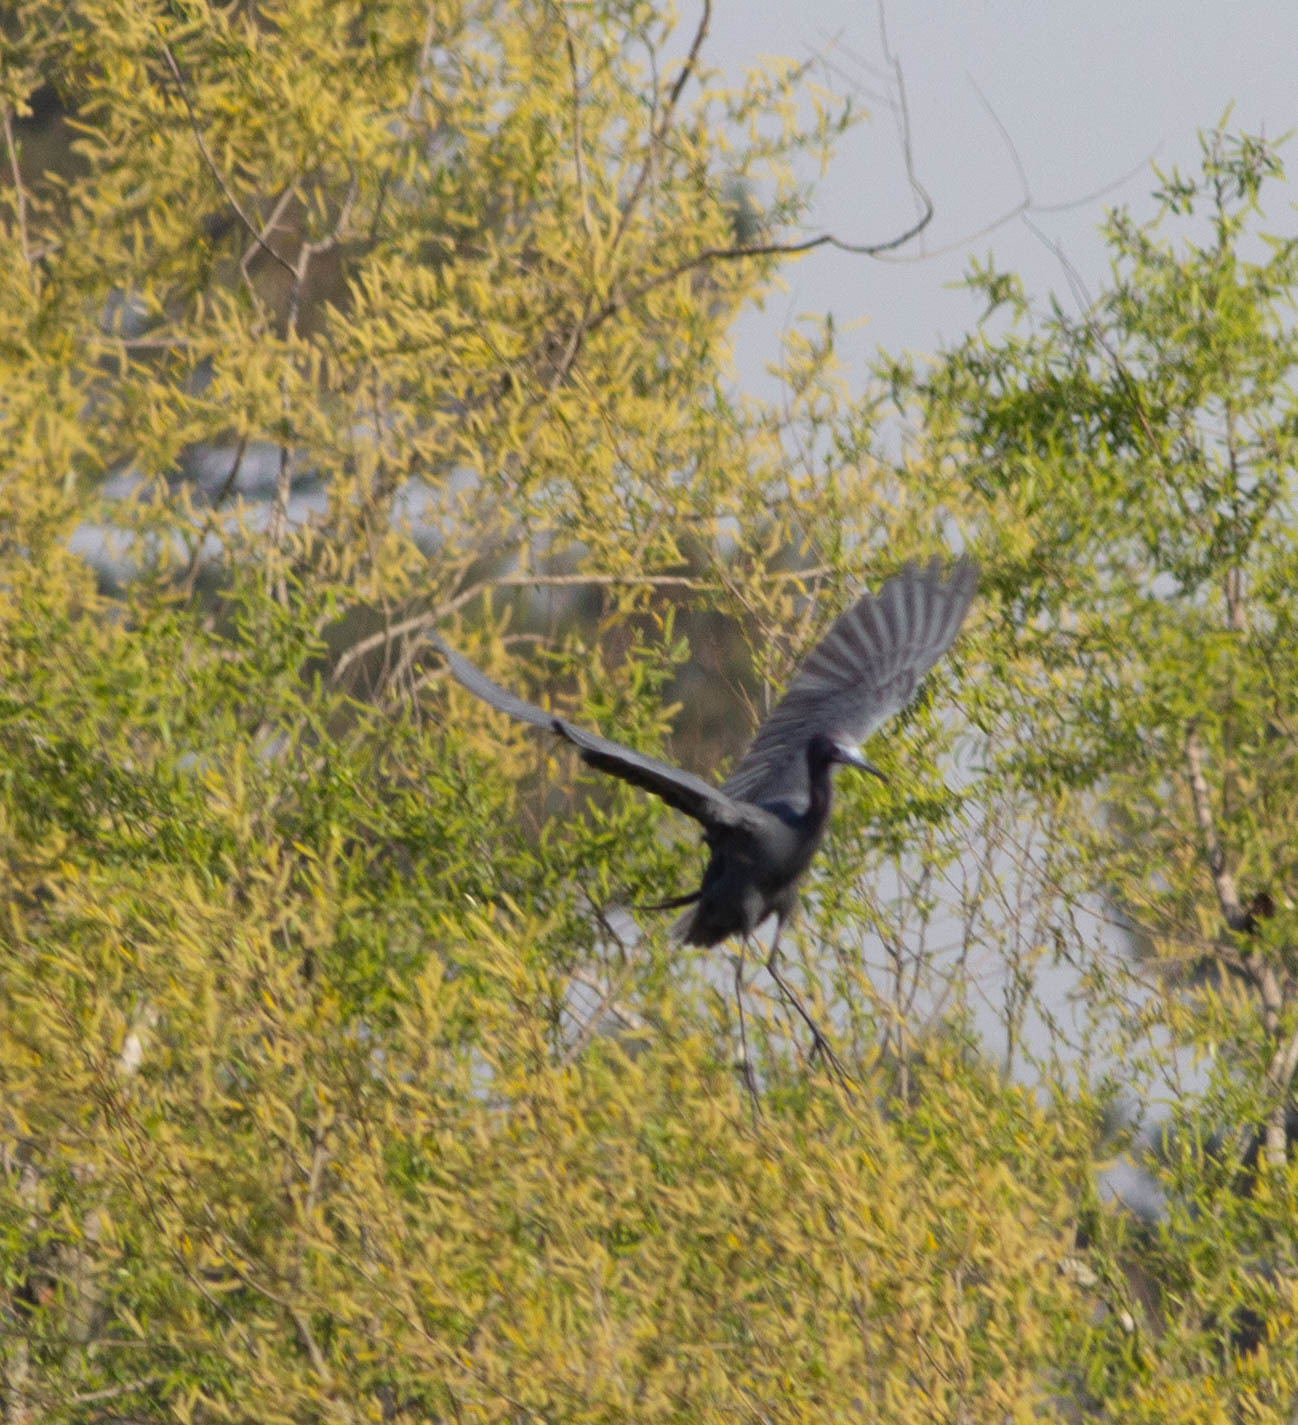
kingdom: Animalia
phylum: Chordata
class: Aves
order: Pelecaniformes
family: Ardeidae
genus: Egretta
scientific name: Egretta caerulea
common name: Little blue heron
